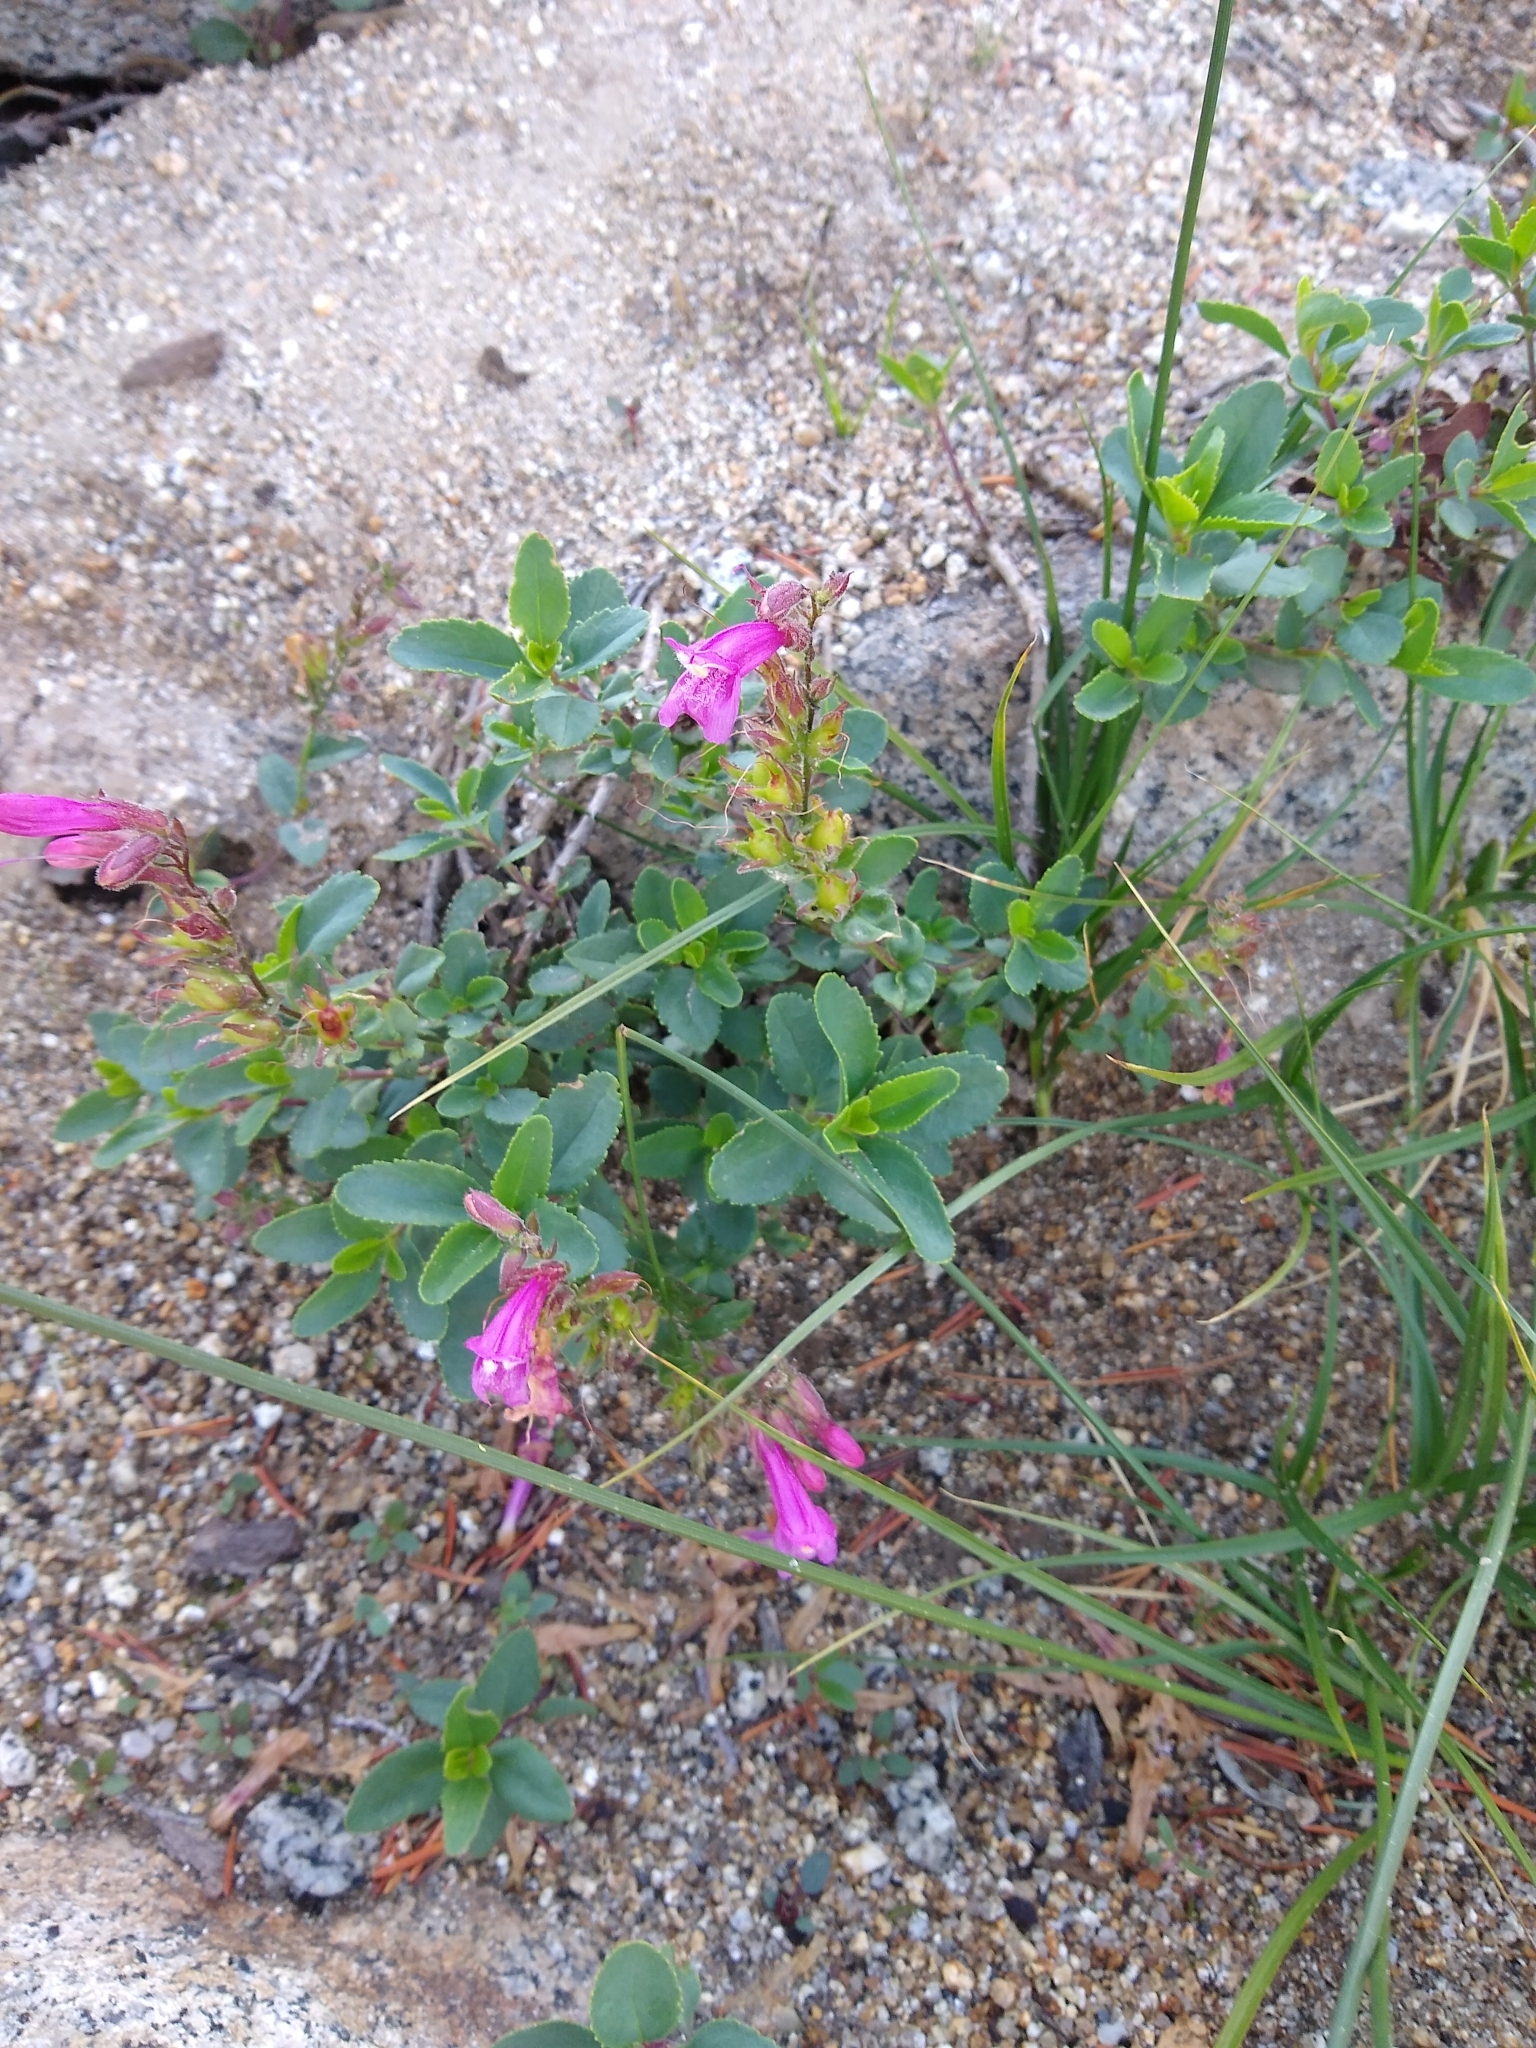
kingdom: Plantae
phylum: Tracheophyta
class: Magnoliopsida
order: Lamiales
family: Plantaginaceae
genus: Penstemon
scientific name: Penstemon newberryi
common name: Mountain-pride
